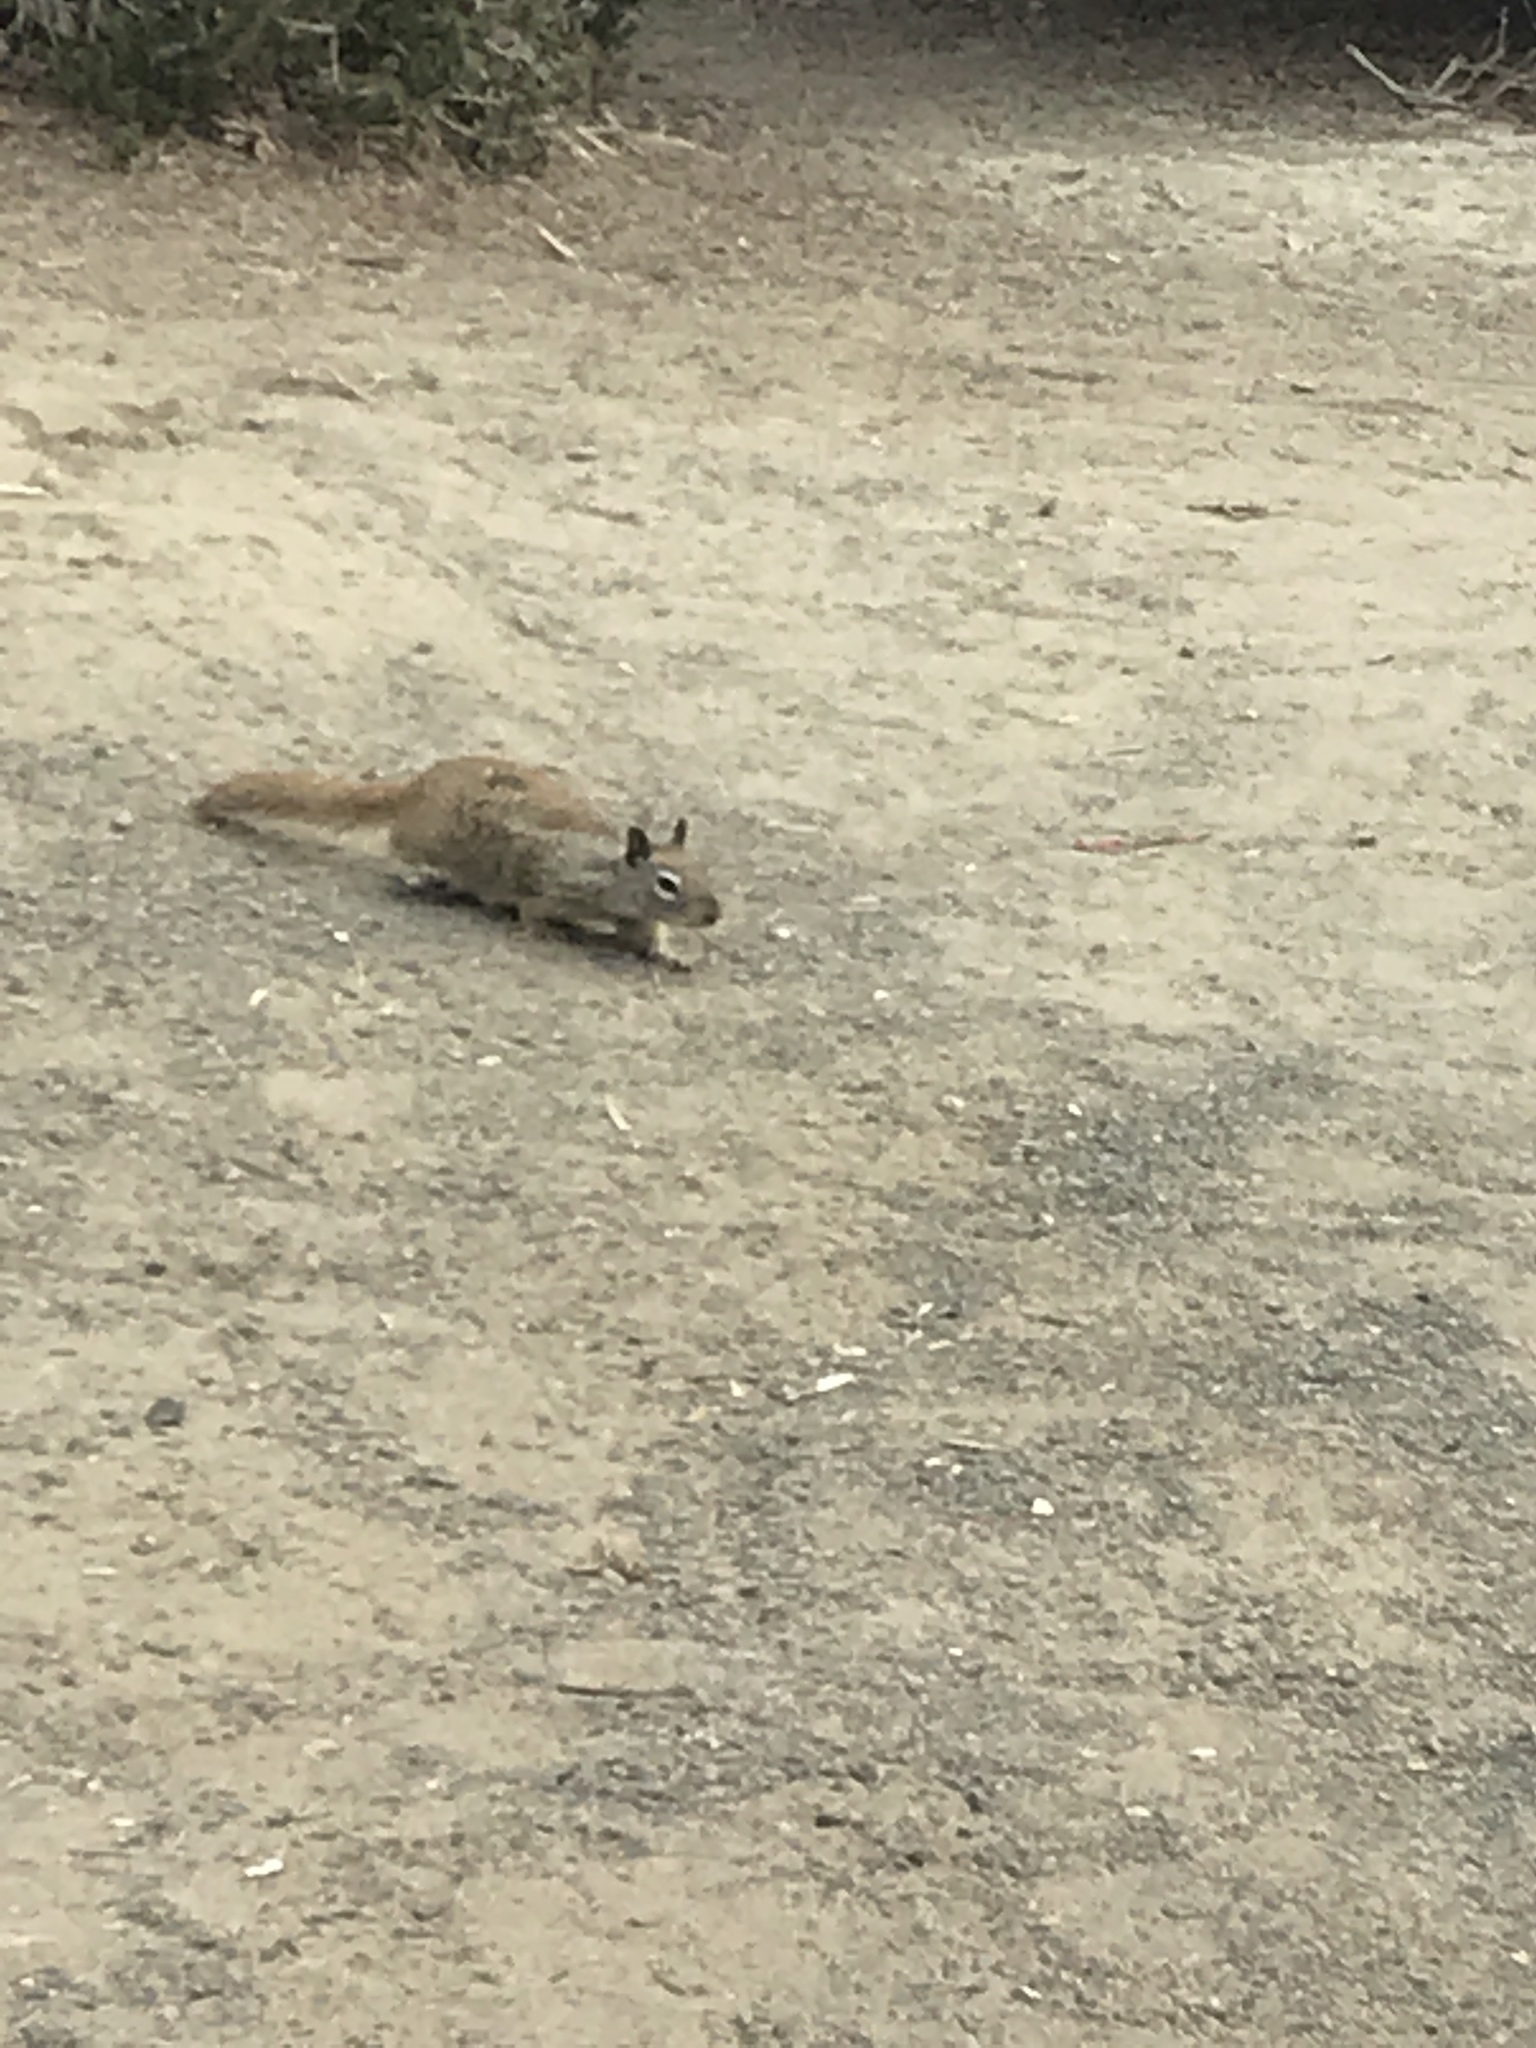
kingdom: Animalia
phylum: Chordata
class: Mammalia
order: Rodentia
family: Sciuridae
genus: Otospermophilus
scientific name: Otospermophilus beecheyi
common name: California ground squirrel
